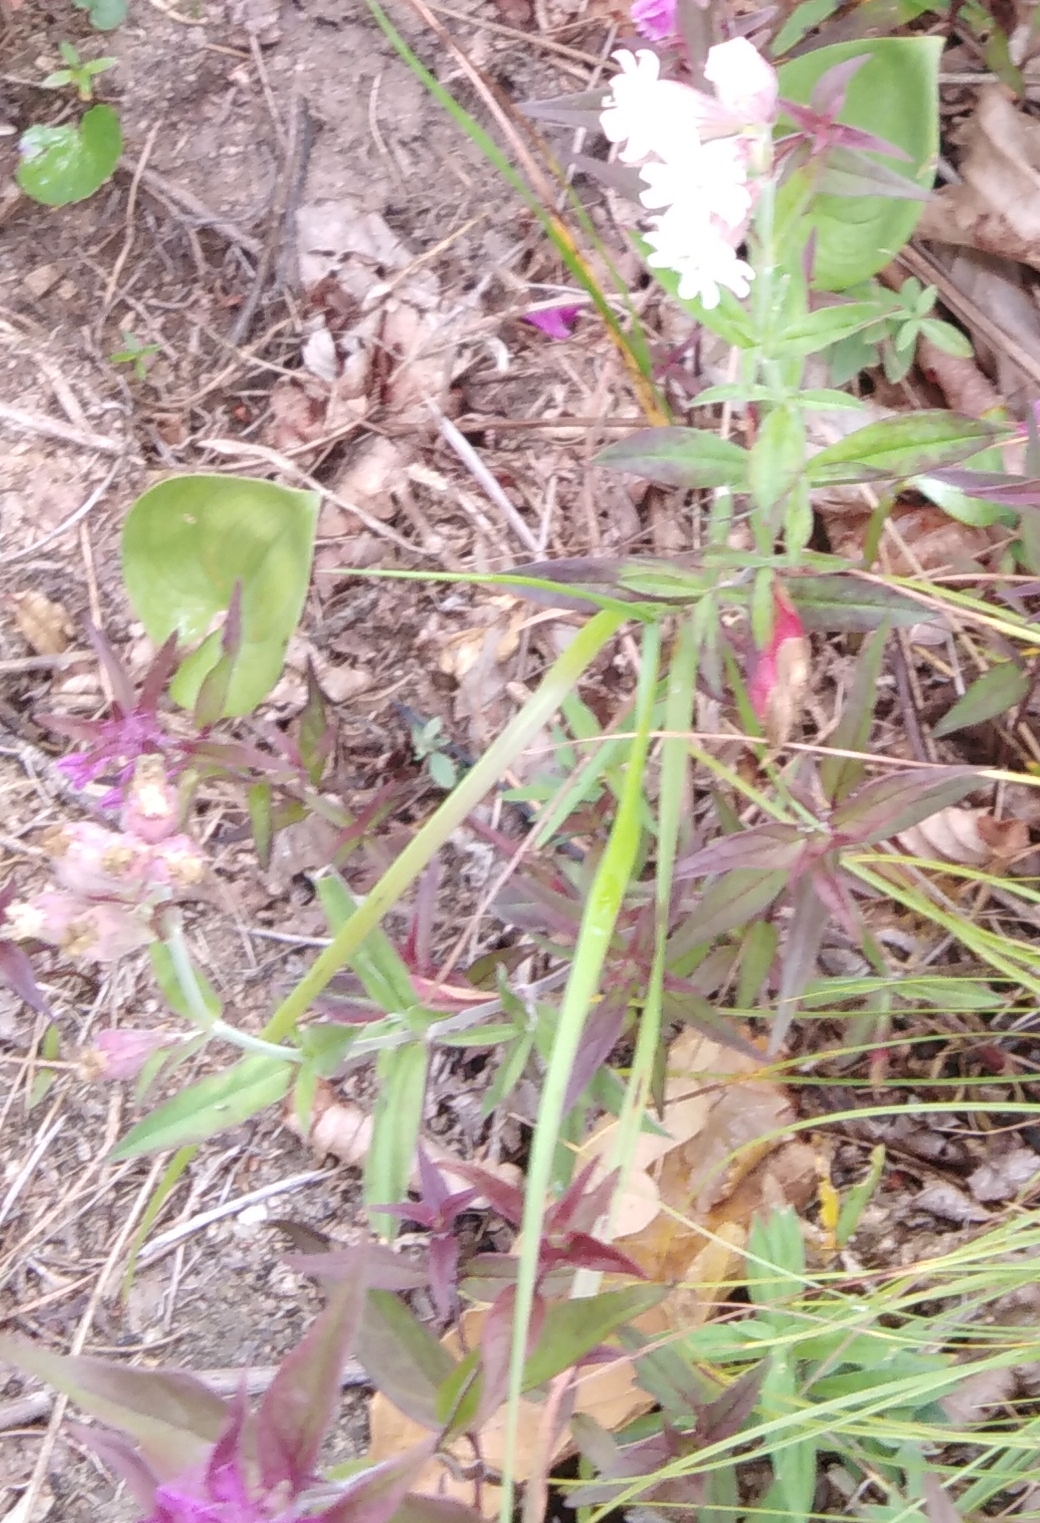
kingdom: Plantae
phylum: Tracheophyta
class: Magnoliopsida
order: Caryophyllales
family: Caryophyllaceae
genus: Silene
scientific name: Silene amoena
